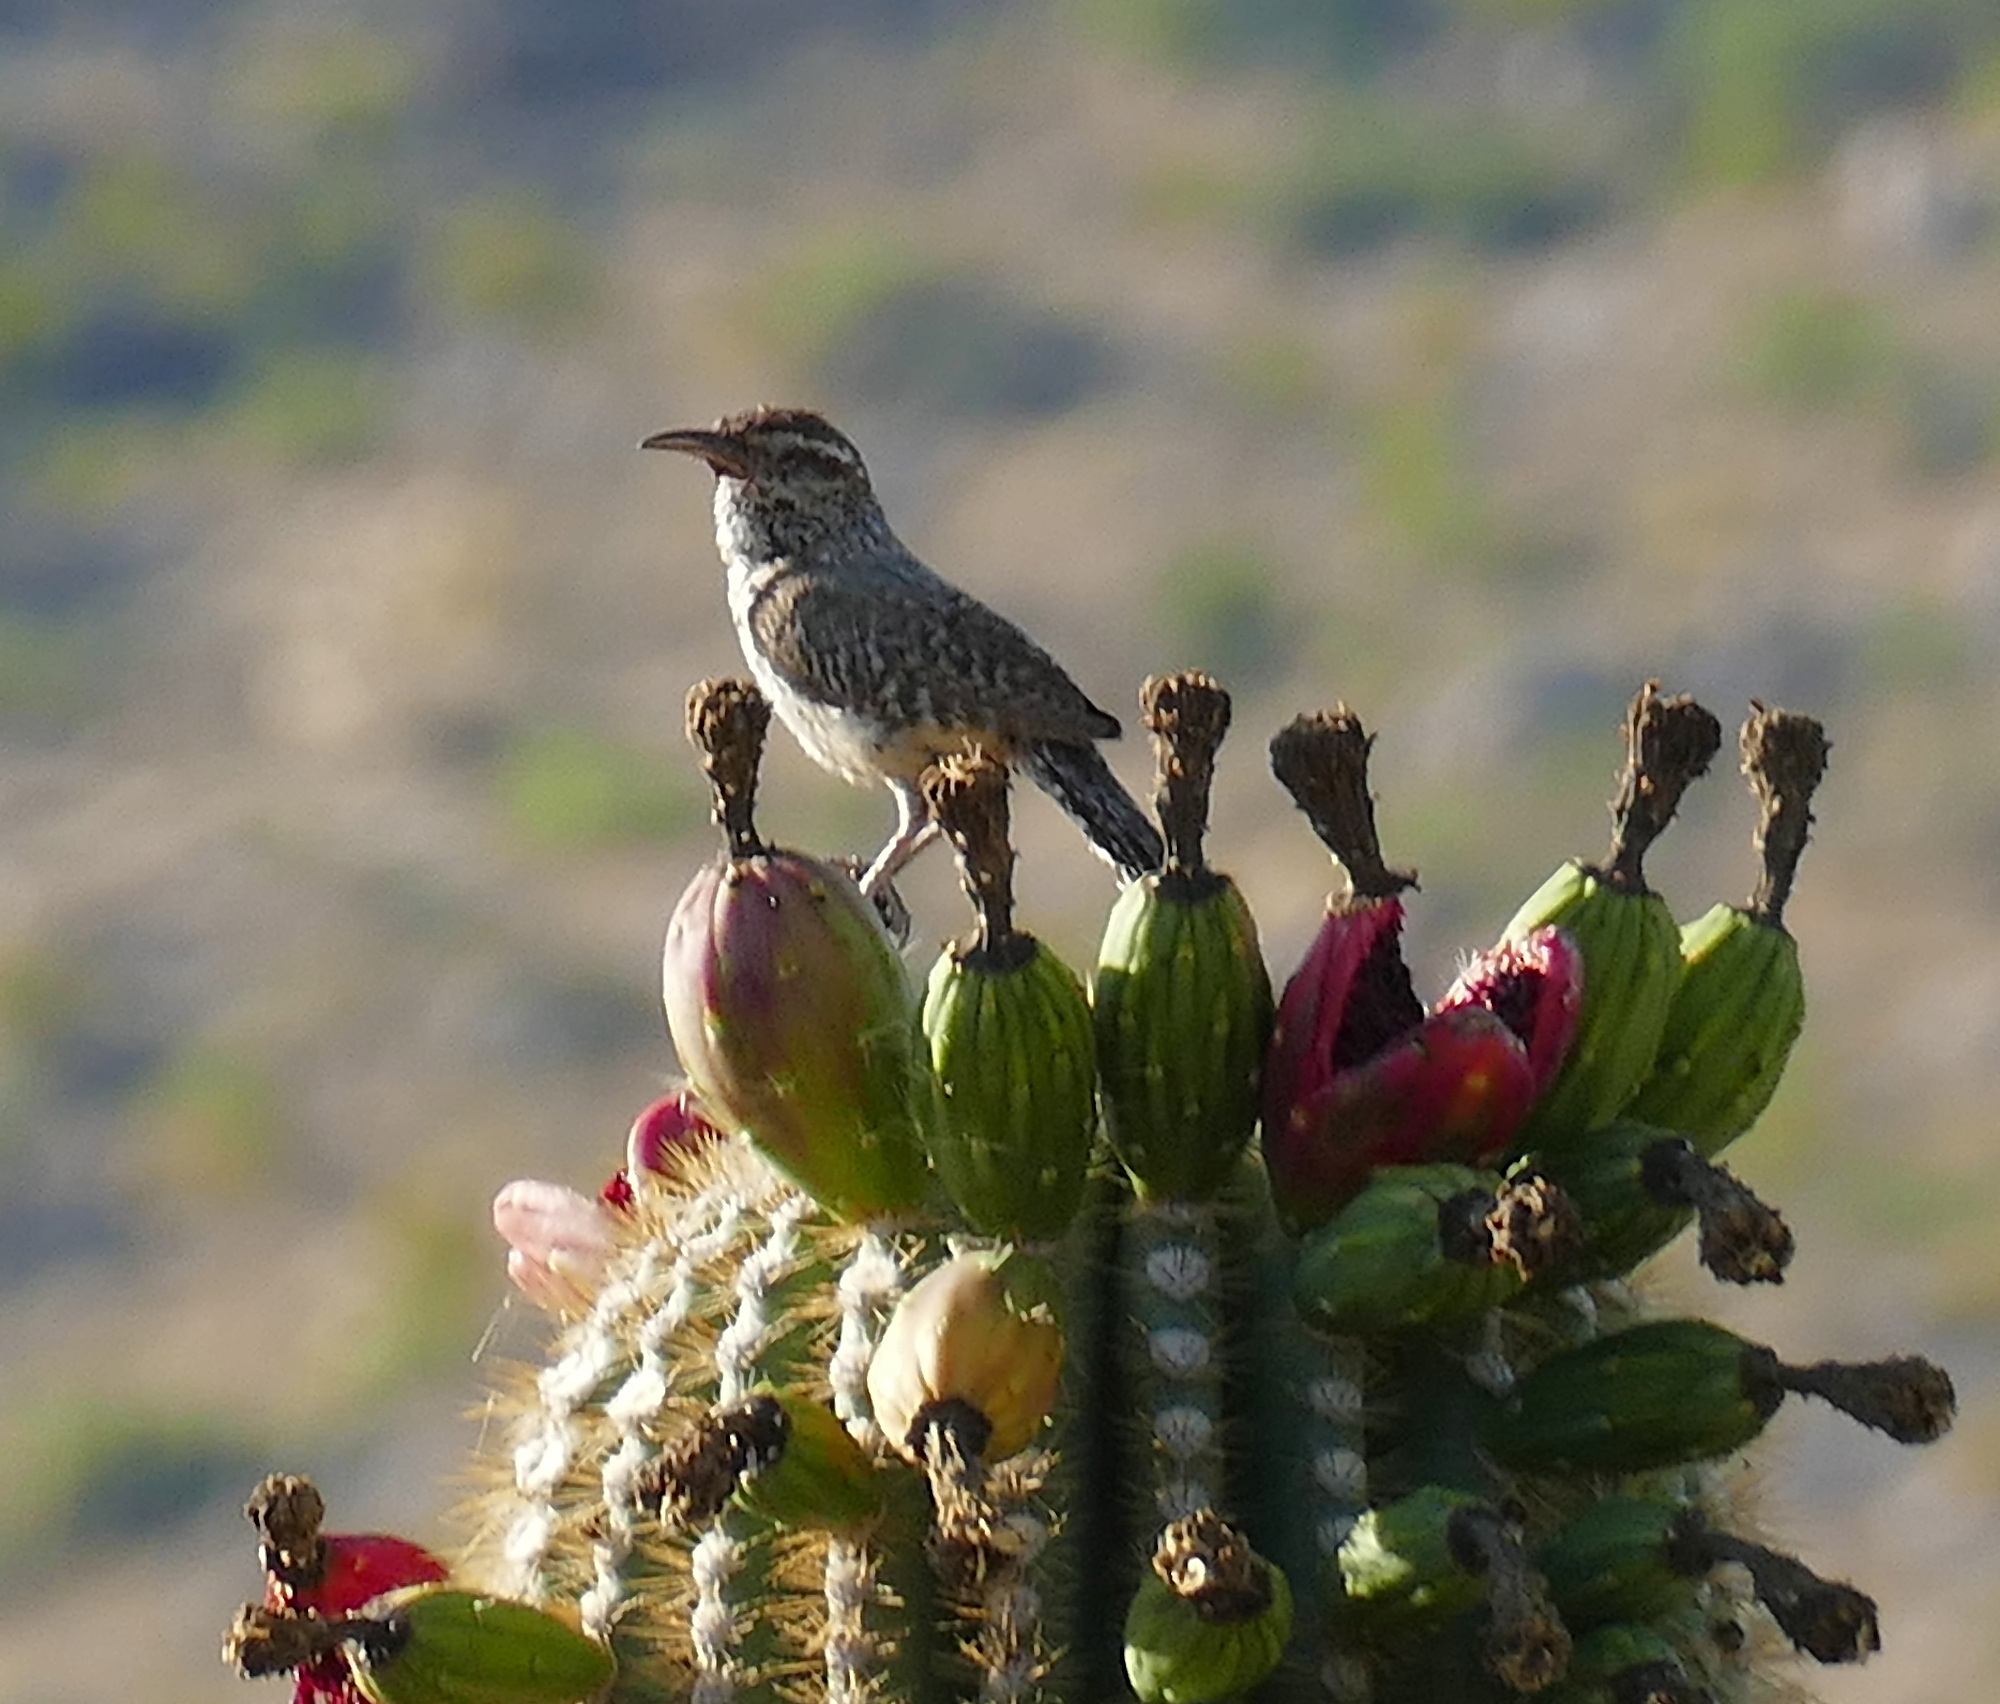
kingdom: Animalia
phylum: Chordata
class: Aves
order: Passeriformes
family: Troglodytidae
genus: Campylorhynchus
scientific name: Campylorhynchus brunneicapillus
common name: Cactus wren
